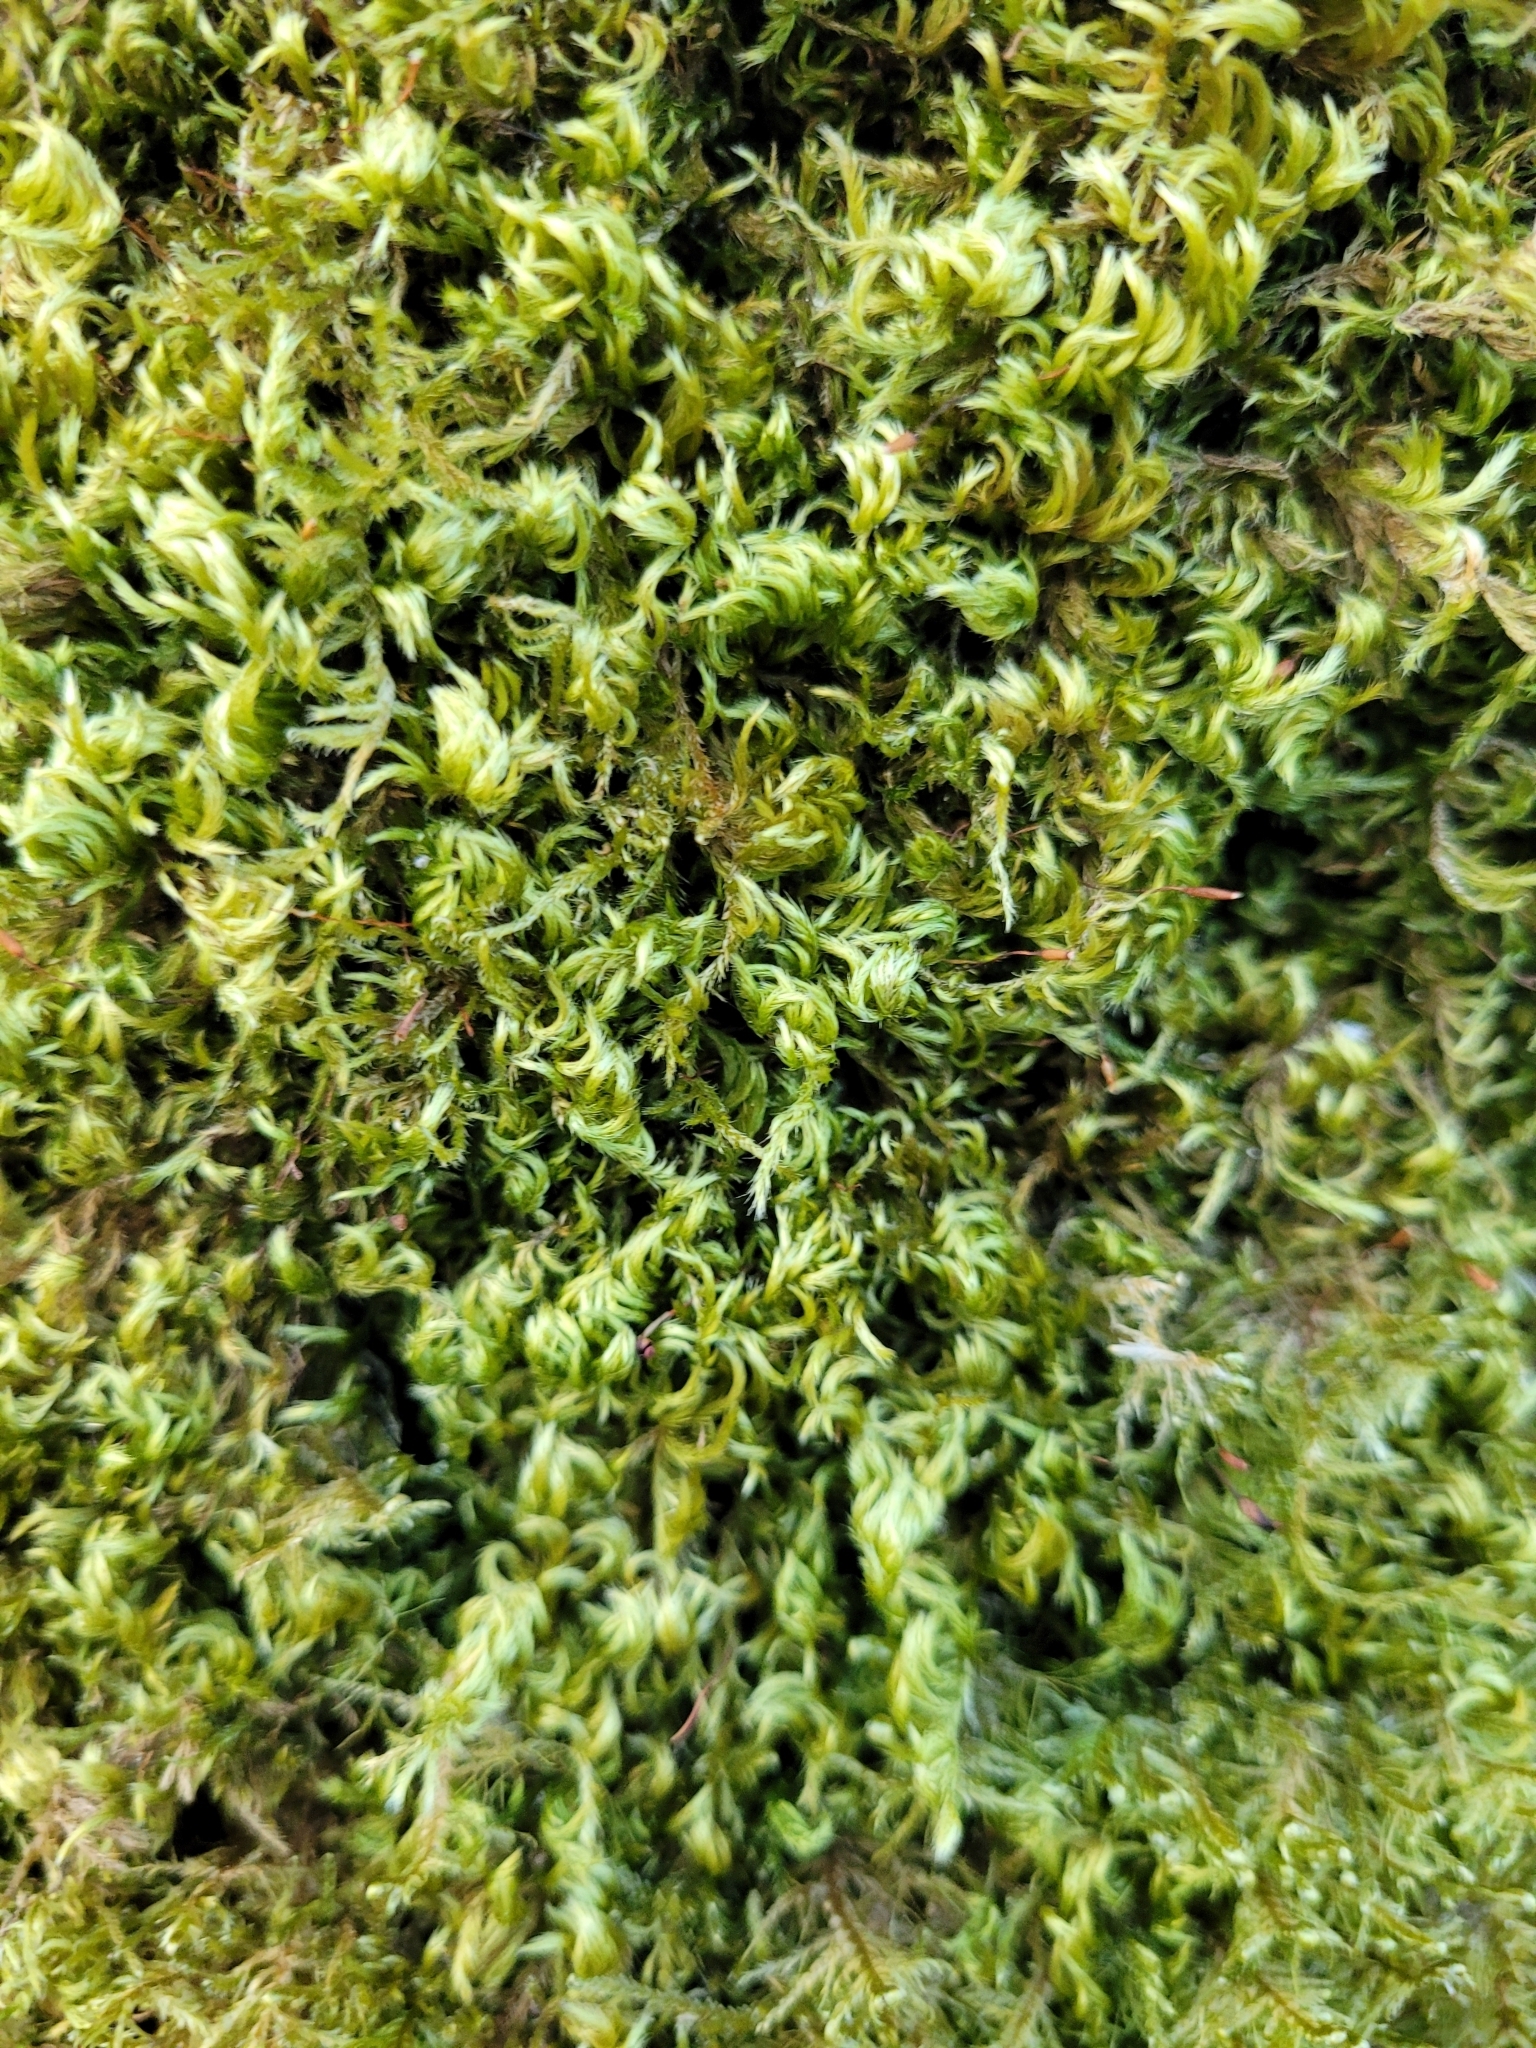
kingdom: Plantae
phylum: Bryophyta
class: Bryopsida
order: Hypnales
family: Brachytheciaceae
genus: Homalothecium
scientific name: Homalothecium sericeum
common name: Silky wall feather-moss
